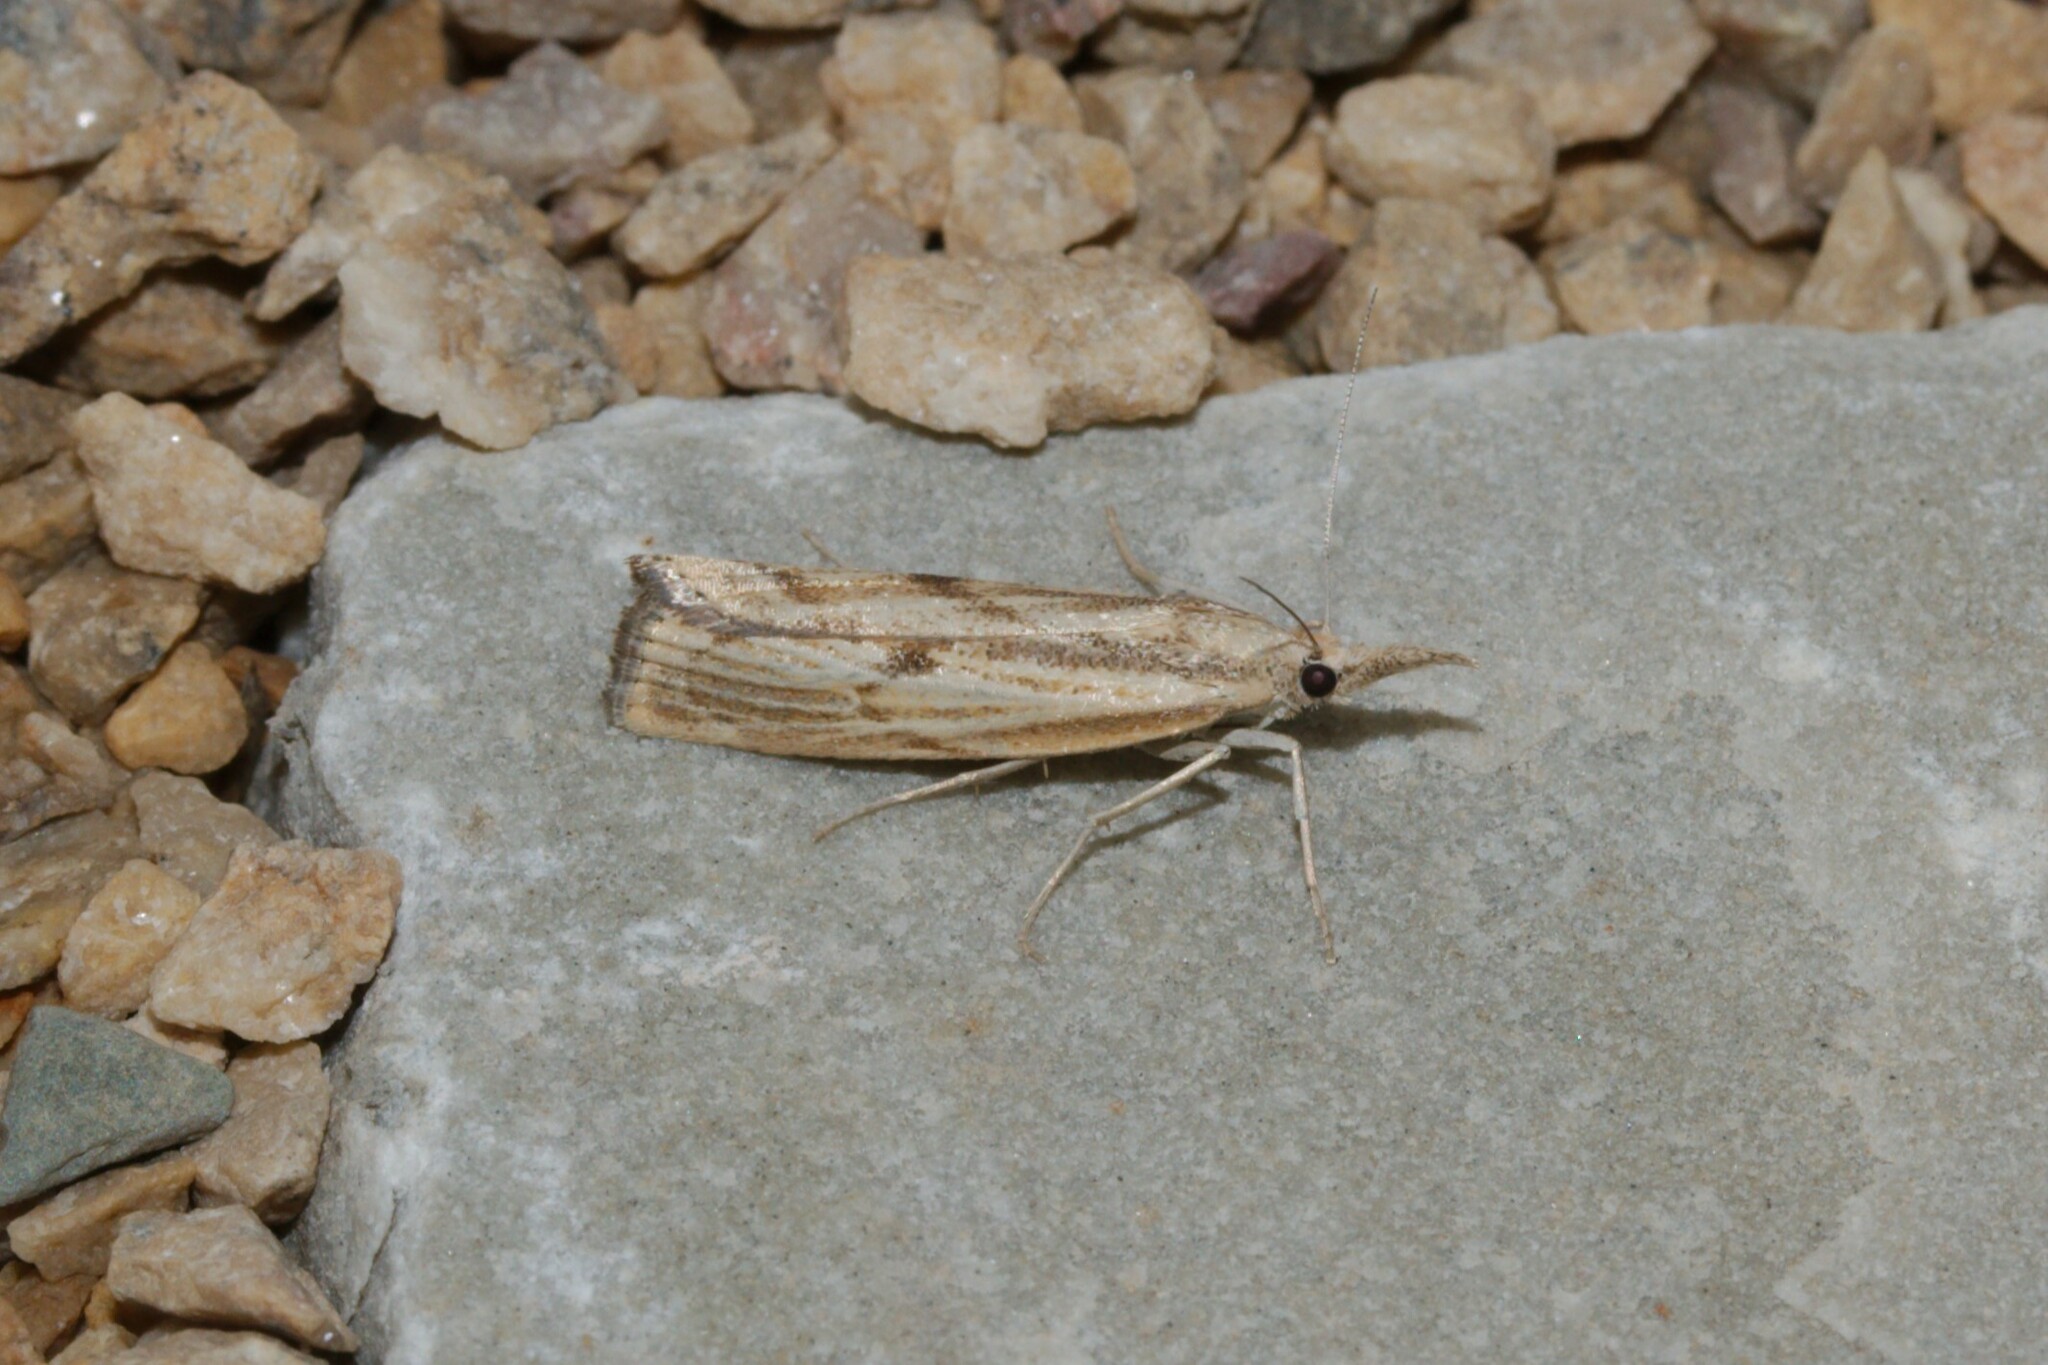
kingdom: Animalia
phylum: Arthropoda
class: Insecta
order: Lepidoptera
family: Crambidae
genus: Agriphila
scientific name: Agriphila inquinatella
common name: Barred grass-veneer
